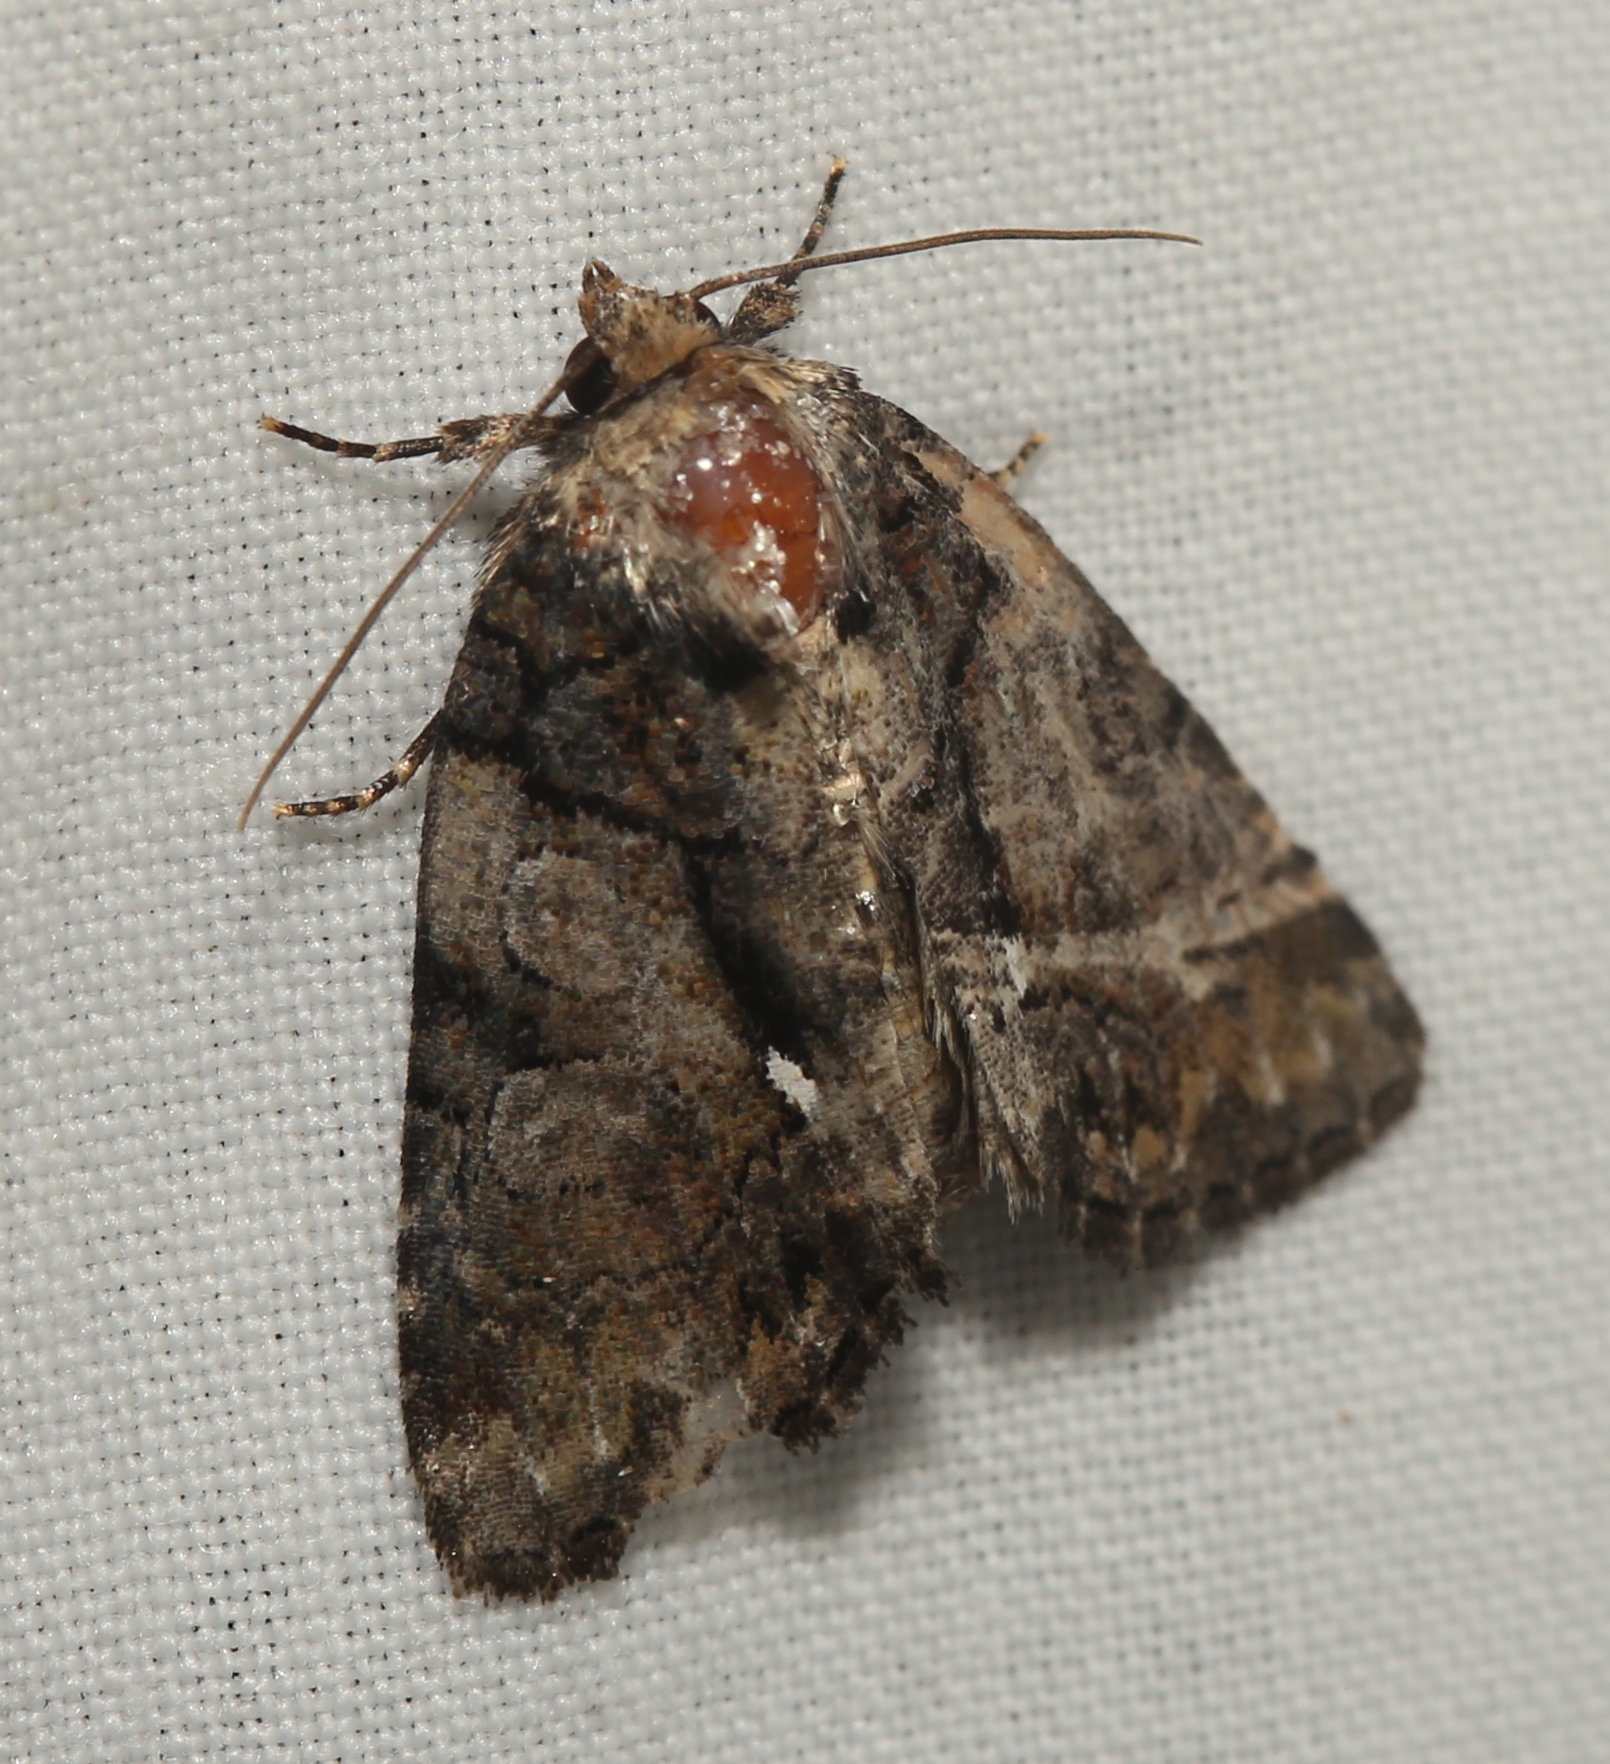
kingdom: Animalia
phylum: Arthropoda
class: Insecta
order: Lepidoptera
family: Noctuidae
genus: Chytonix
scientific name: Chytonix palliatricula
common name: Cloaked marvel
